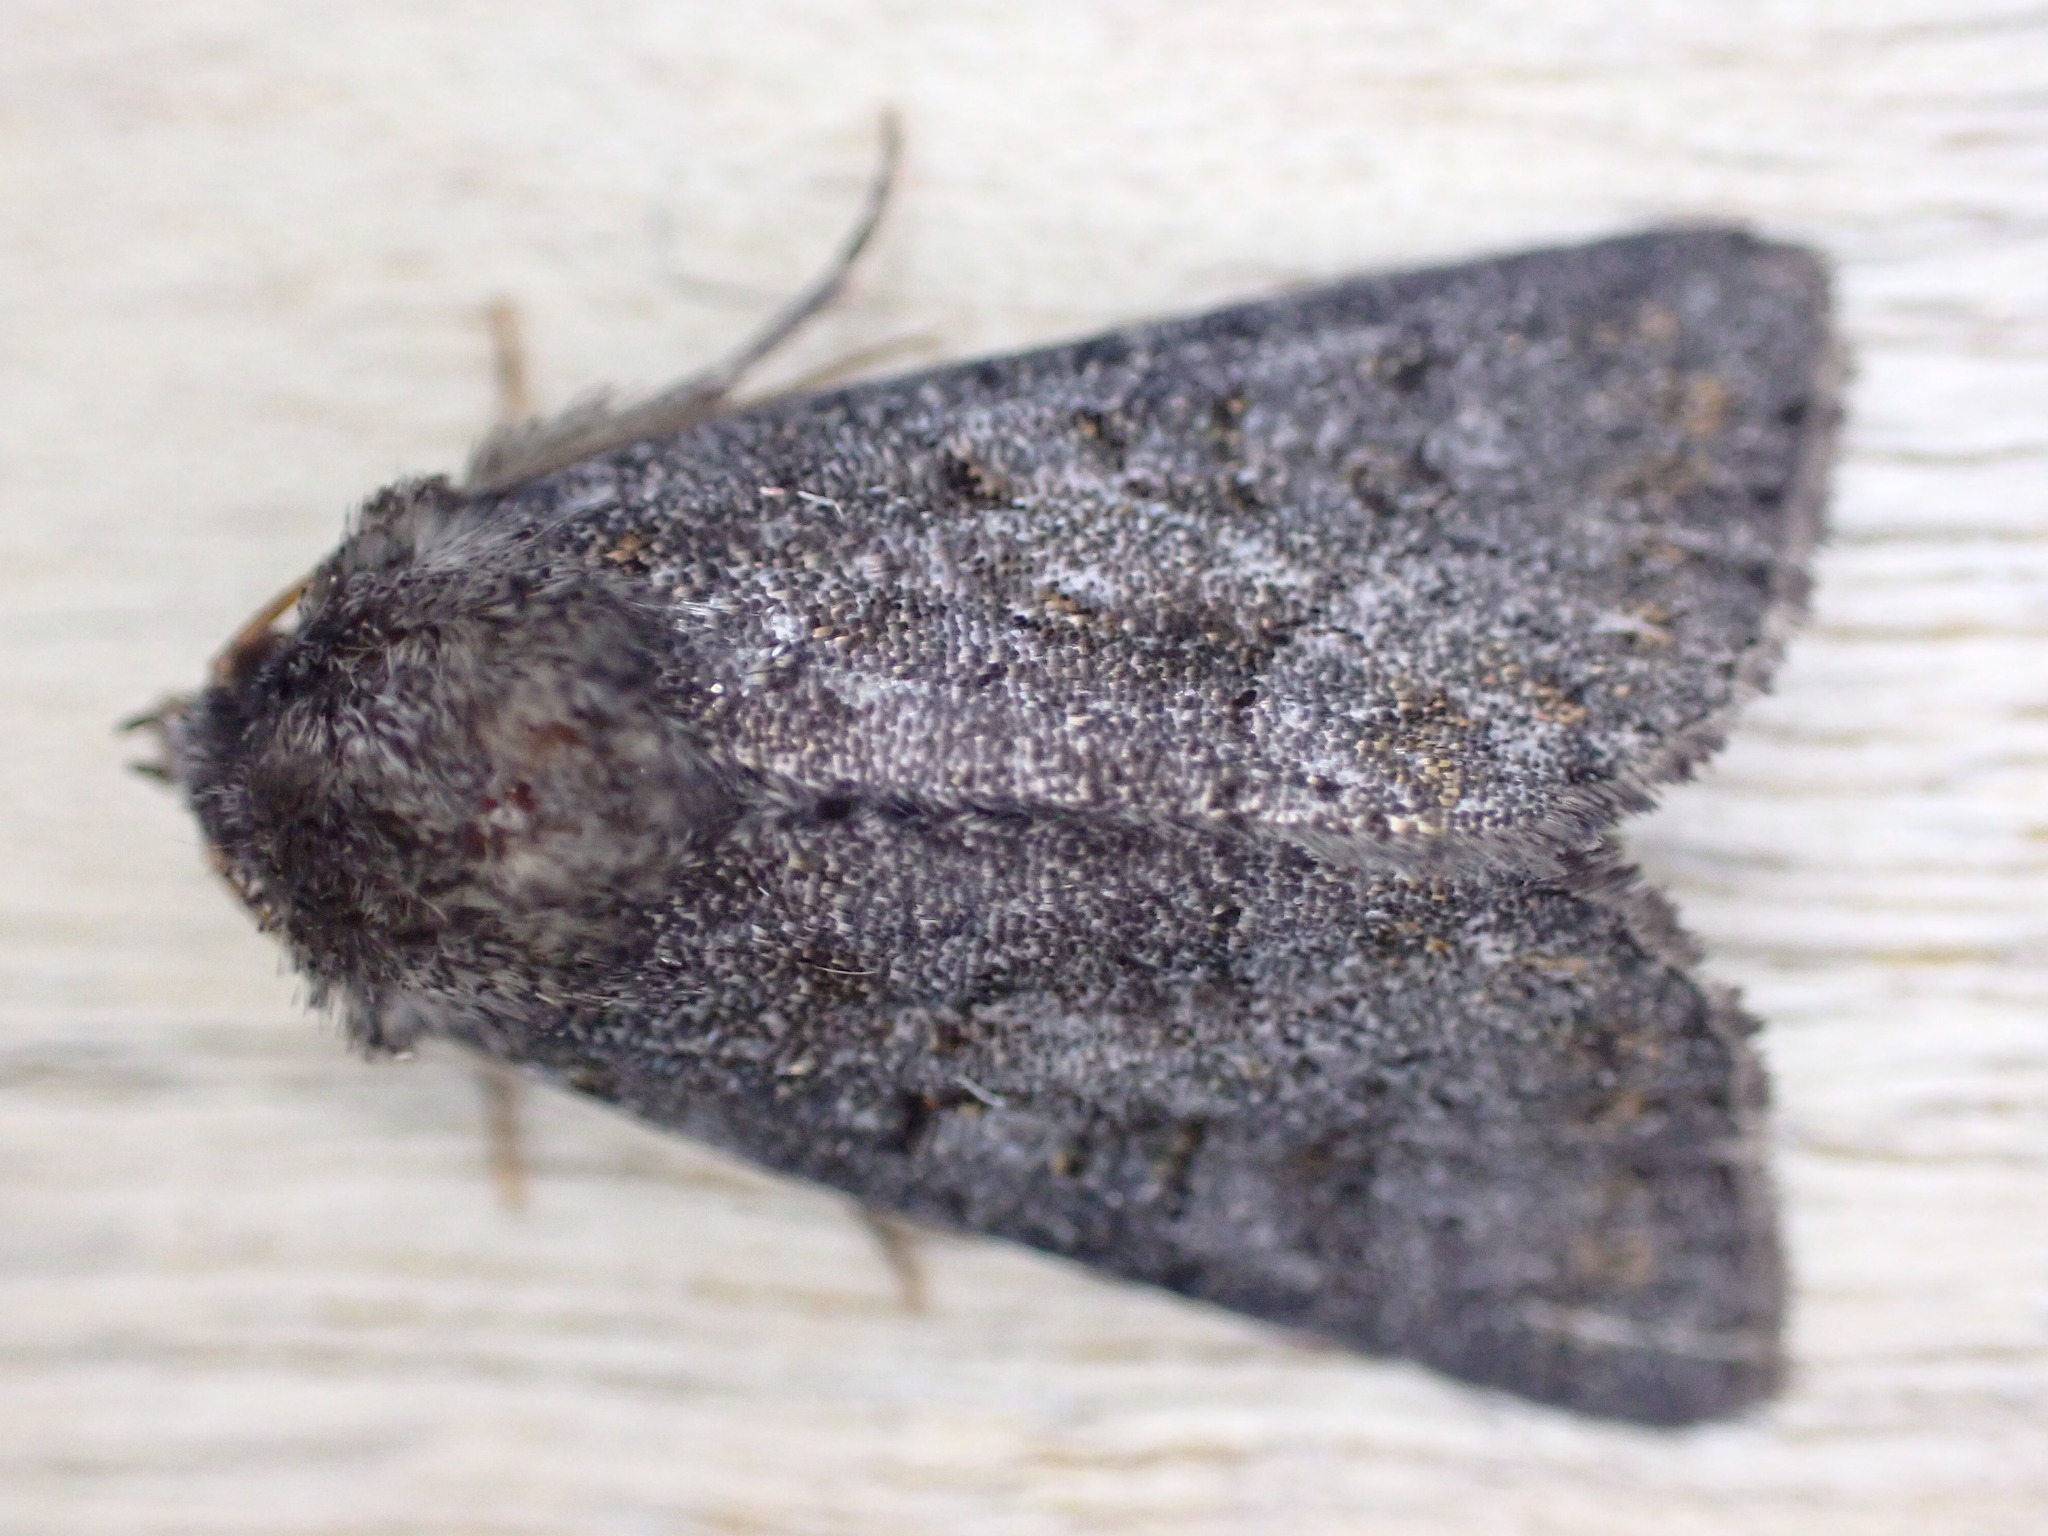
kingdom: Animalia
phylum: Arthropoda
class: Insecta
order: Lepidoptera
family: Noctuidae
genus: Oligia
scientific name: Oligia latruncula
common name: Tawny marbled minor
